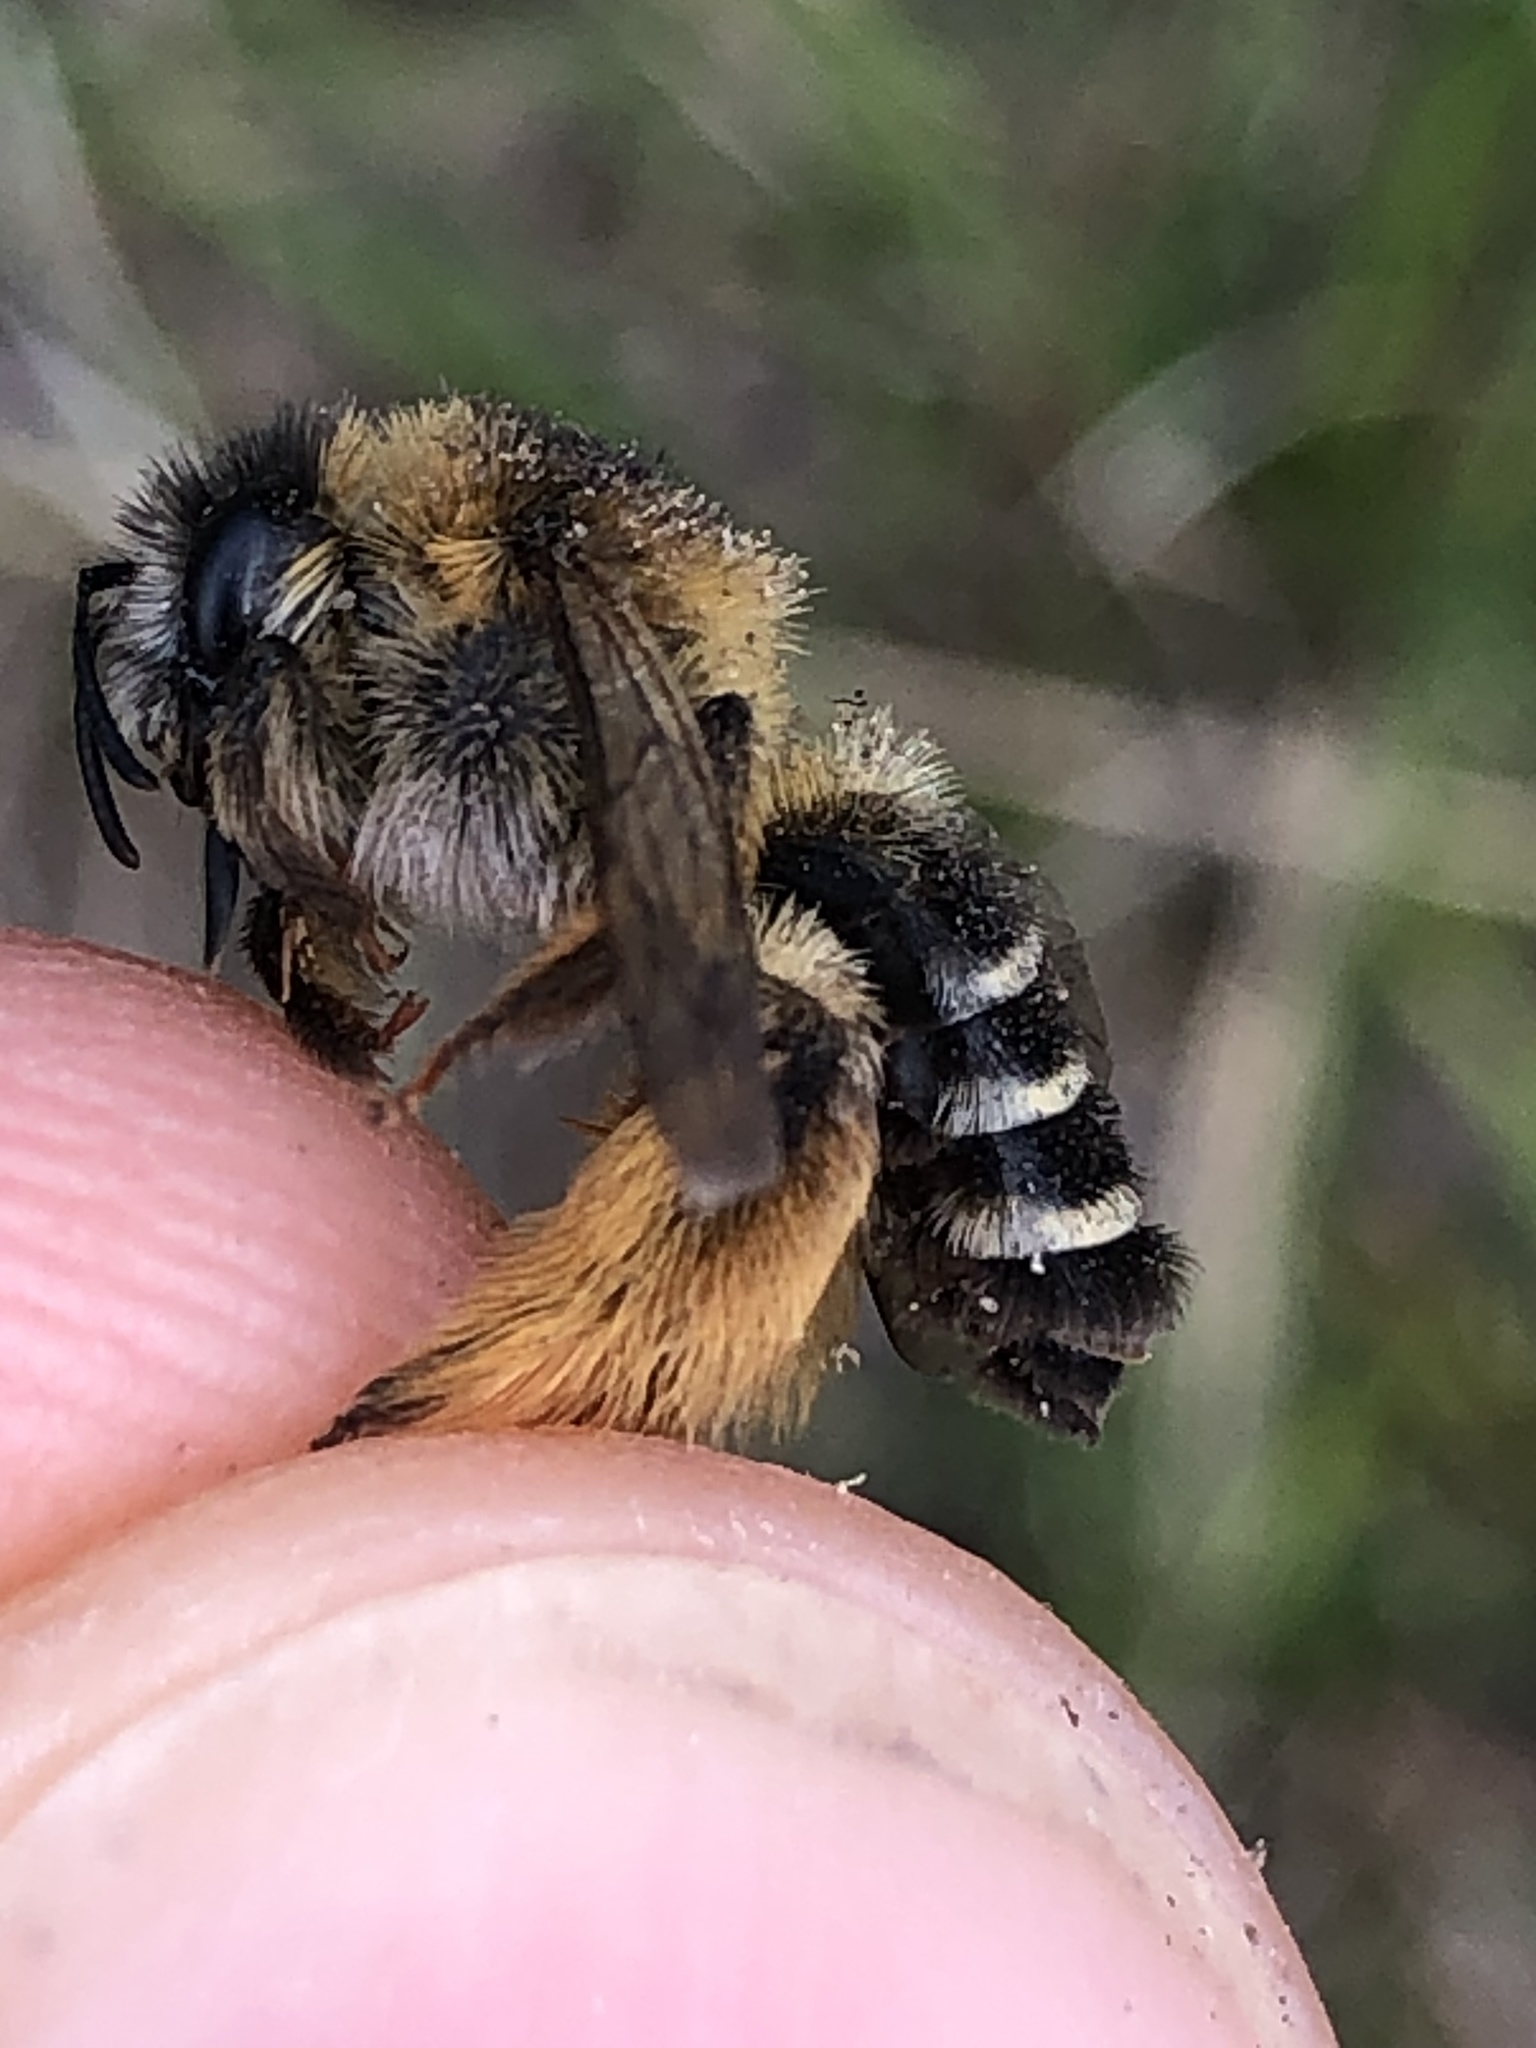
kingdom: Animalia
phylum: Arthropoda
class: Insecta
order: Hymenoptera
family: Melittidae
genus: Dasypoda
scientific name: Dasypoda hirtipes
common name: Pantaloon bee
